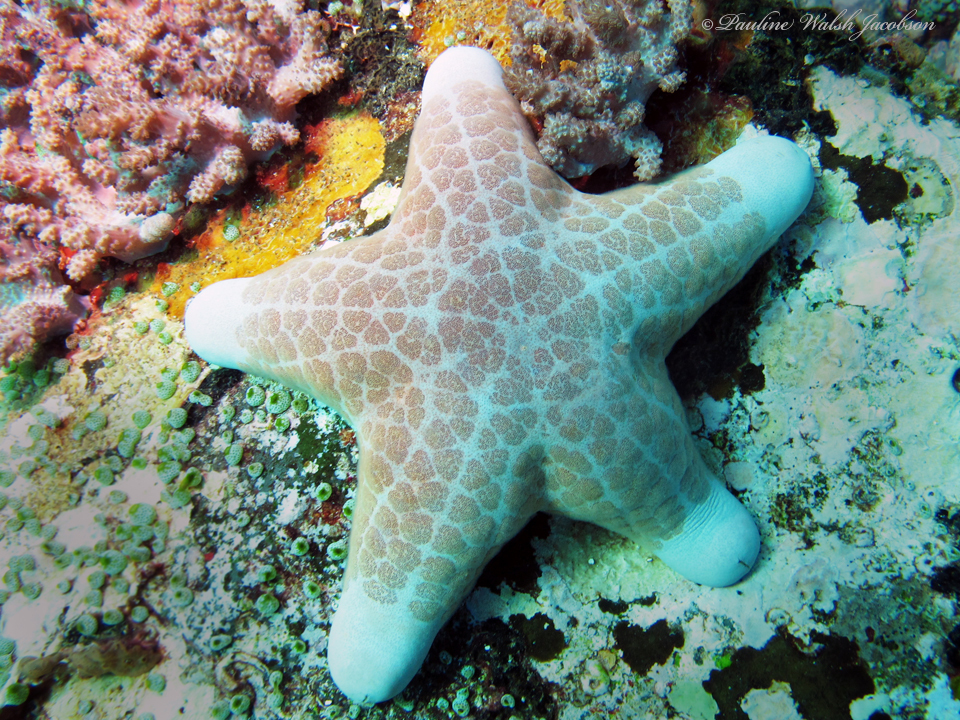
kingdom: Animalia
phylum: Echinodermata
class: Asteroidea
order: Valvatida
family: Oreasteridae
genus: Choriaster
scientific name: Choriaster granulatus
